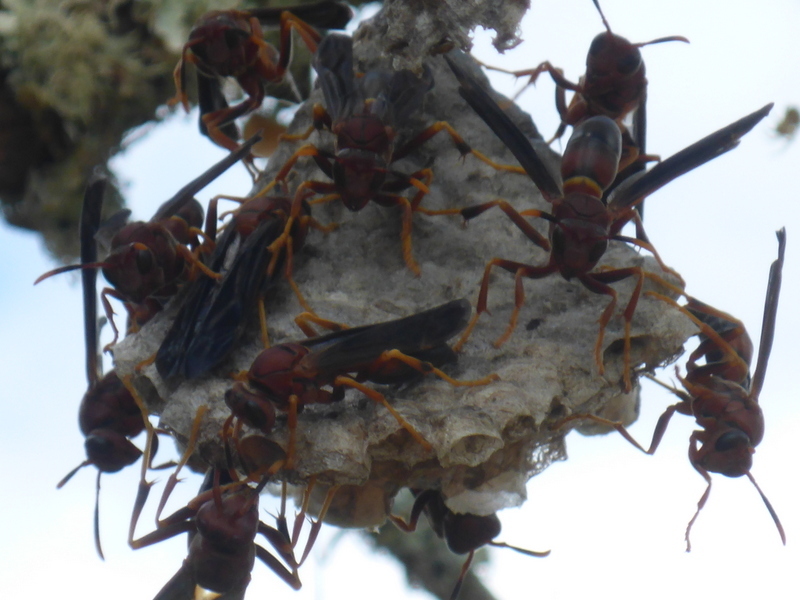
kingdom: Animalia
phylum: Arthropoda
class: Insecta
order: Hymenoptera
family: Eumenidae
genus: Polistes
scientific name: Polistes annularis
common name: Ringed paper wasp
